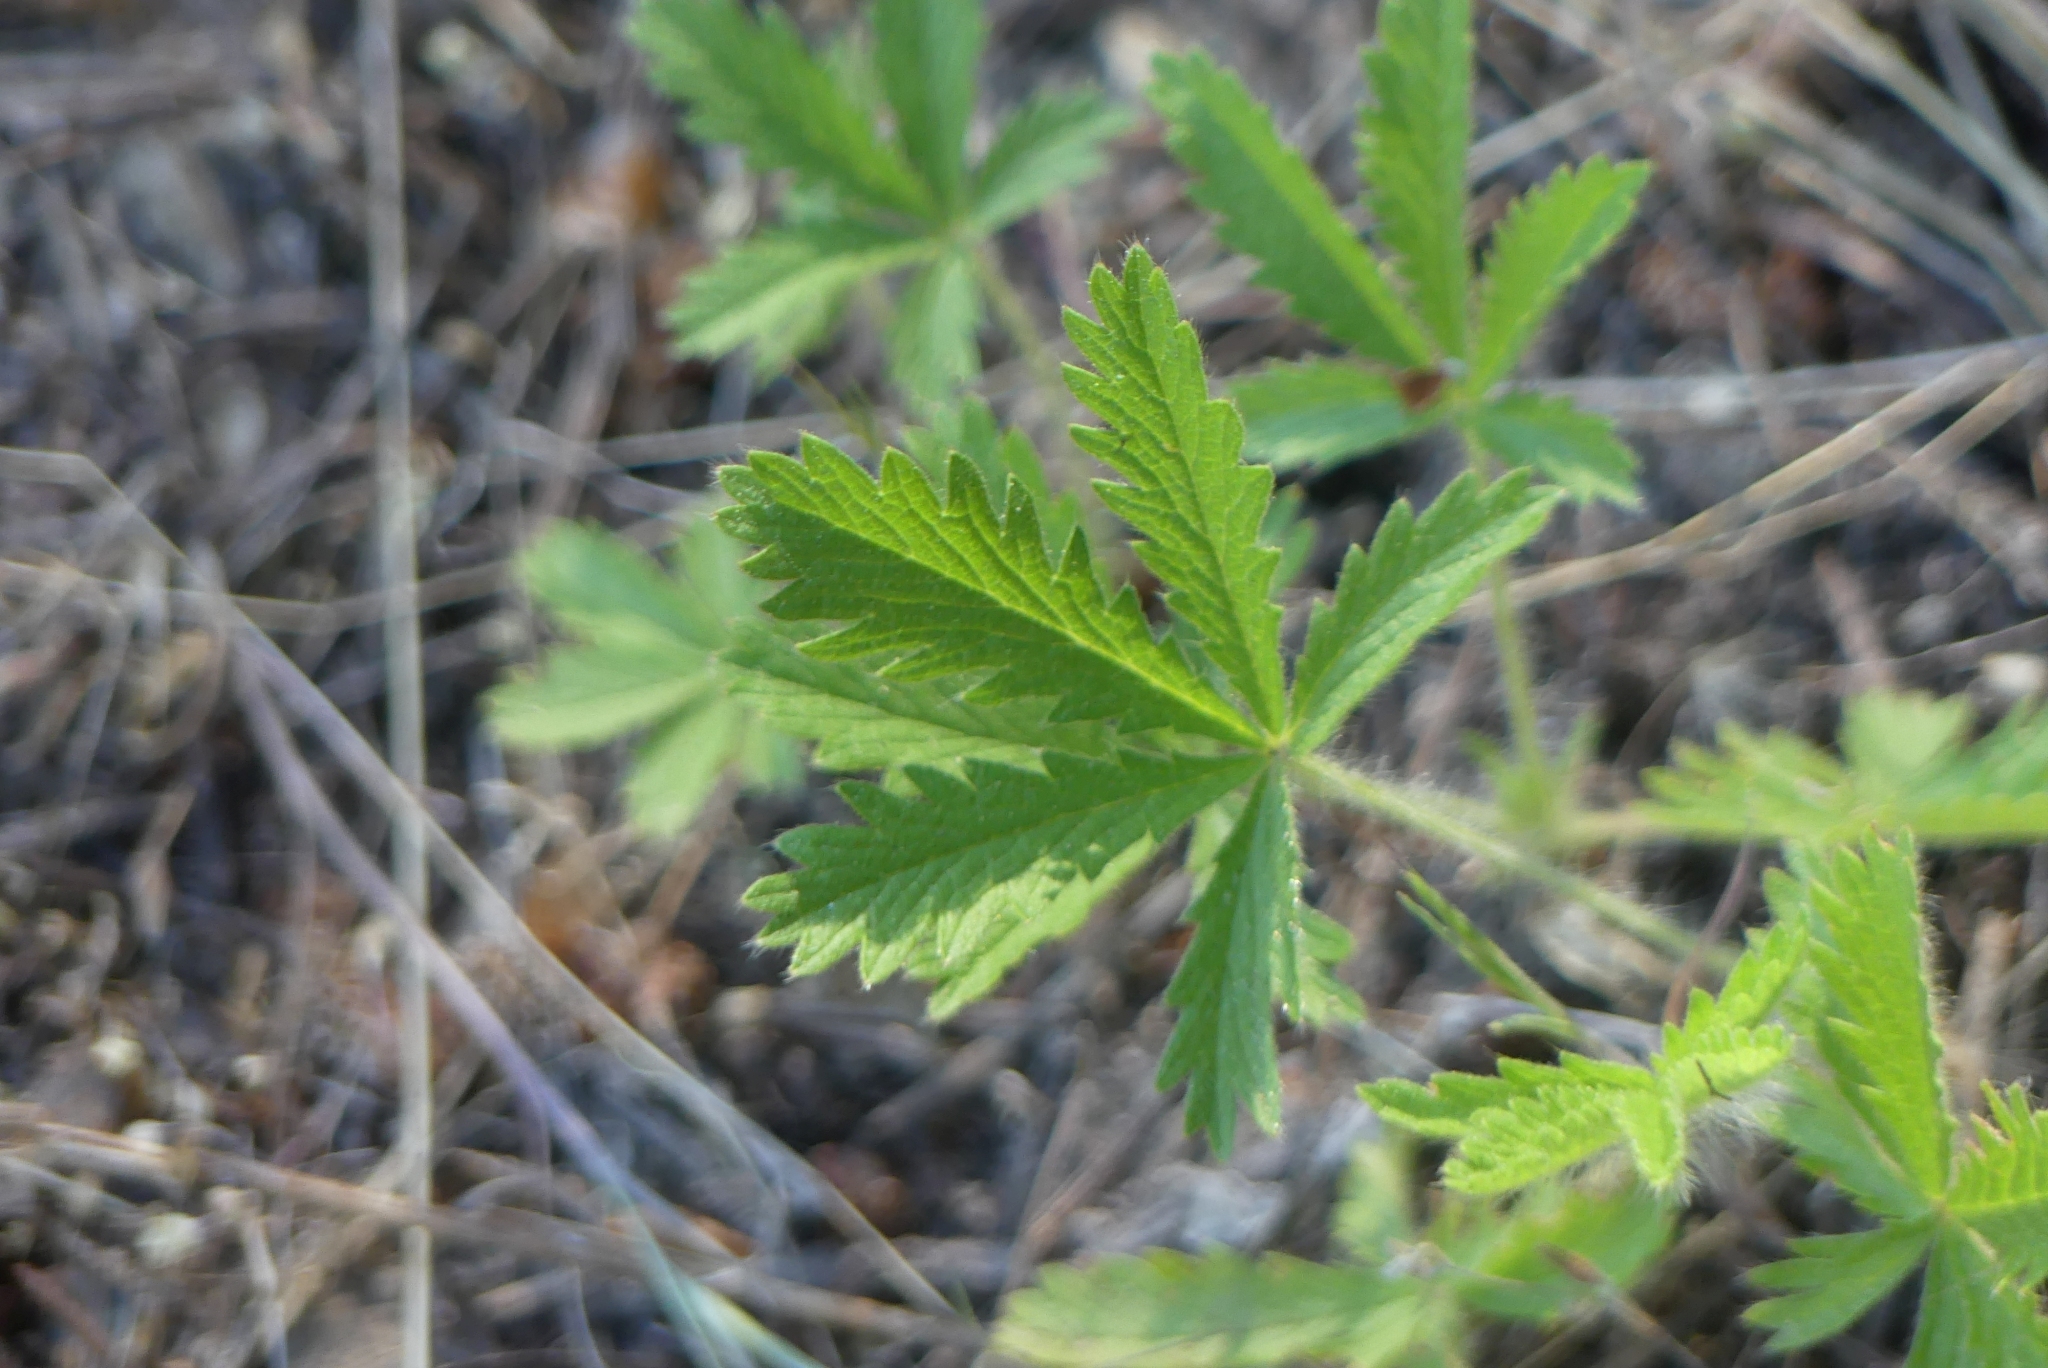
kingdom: Plantae
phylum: Tracheophyta
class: Magnoliopsida
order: Rosales
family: Rosaceae
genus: Potentilla
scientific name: Potentilla recta
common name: Sulphur cinquefoil
